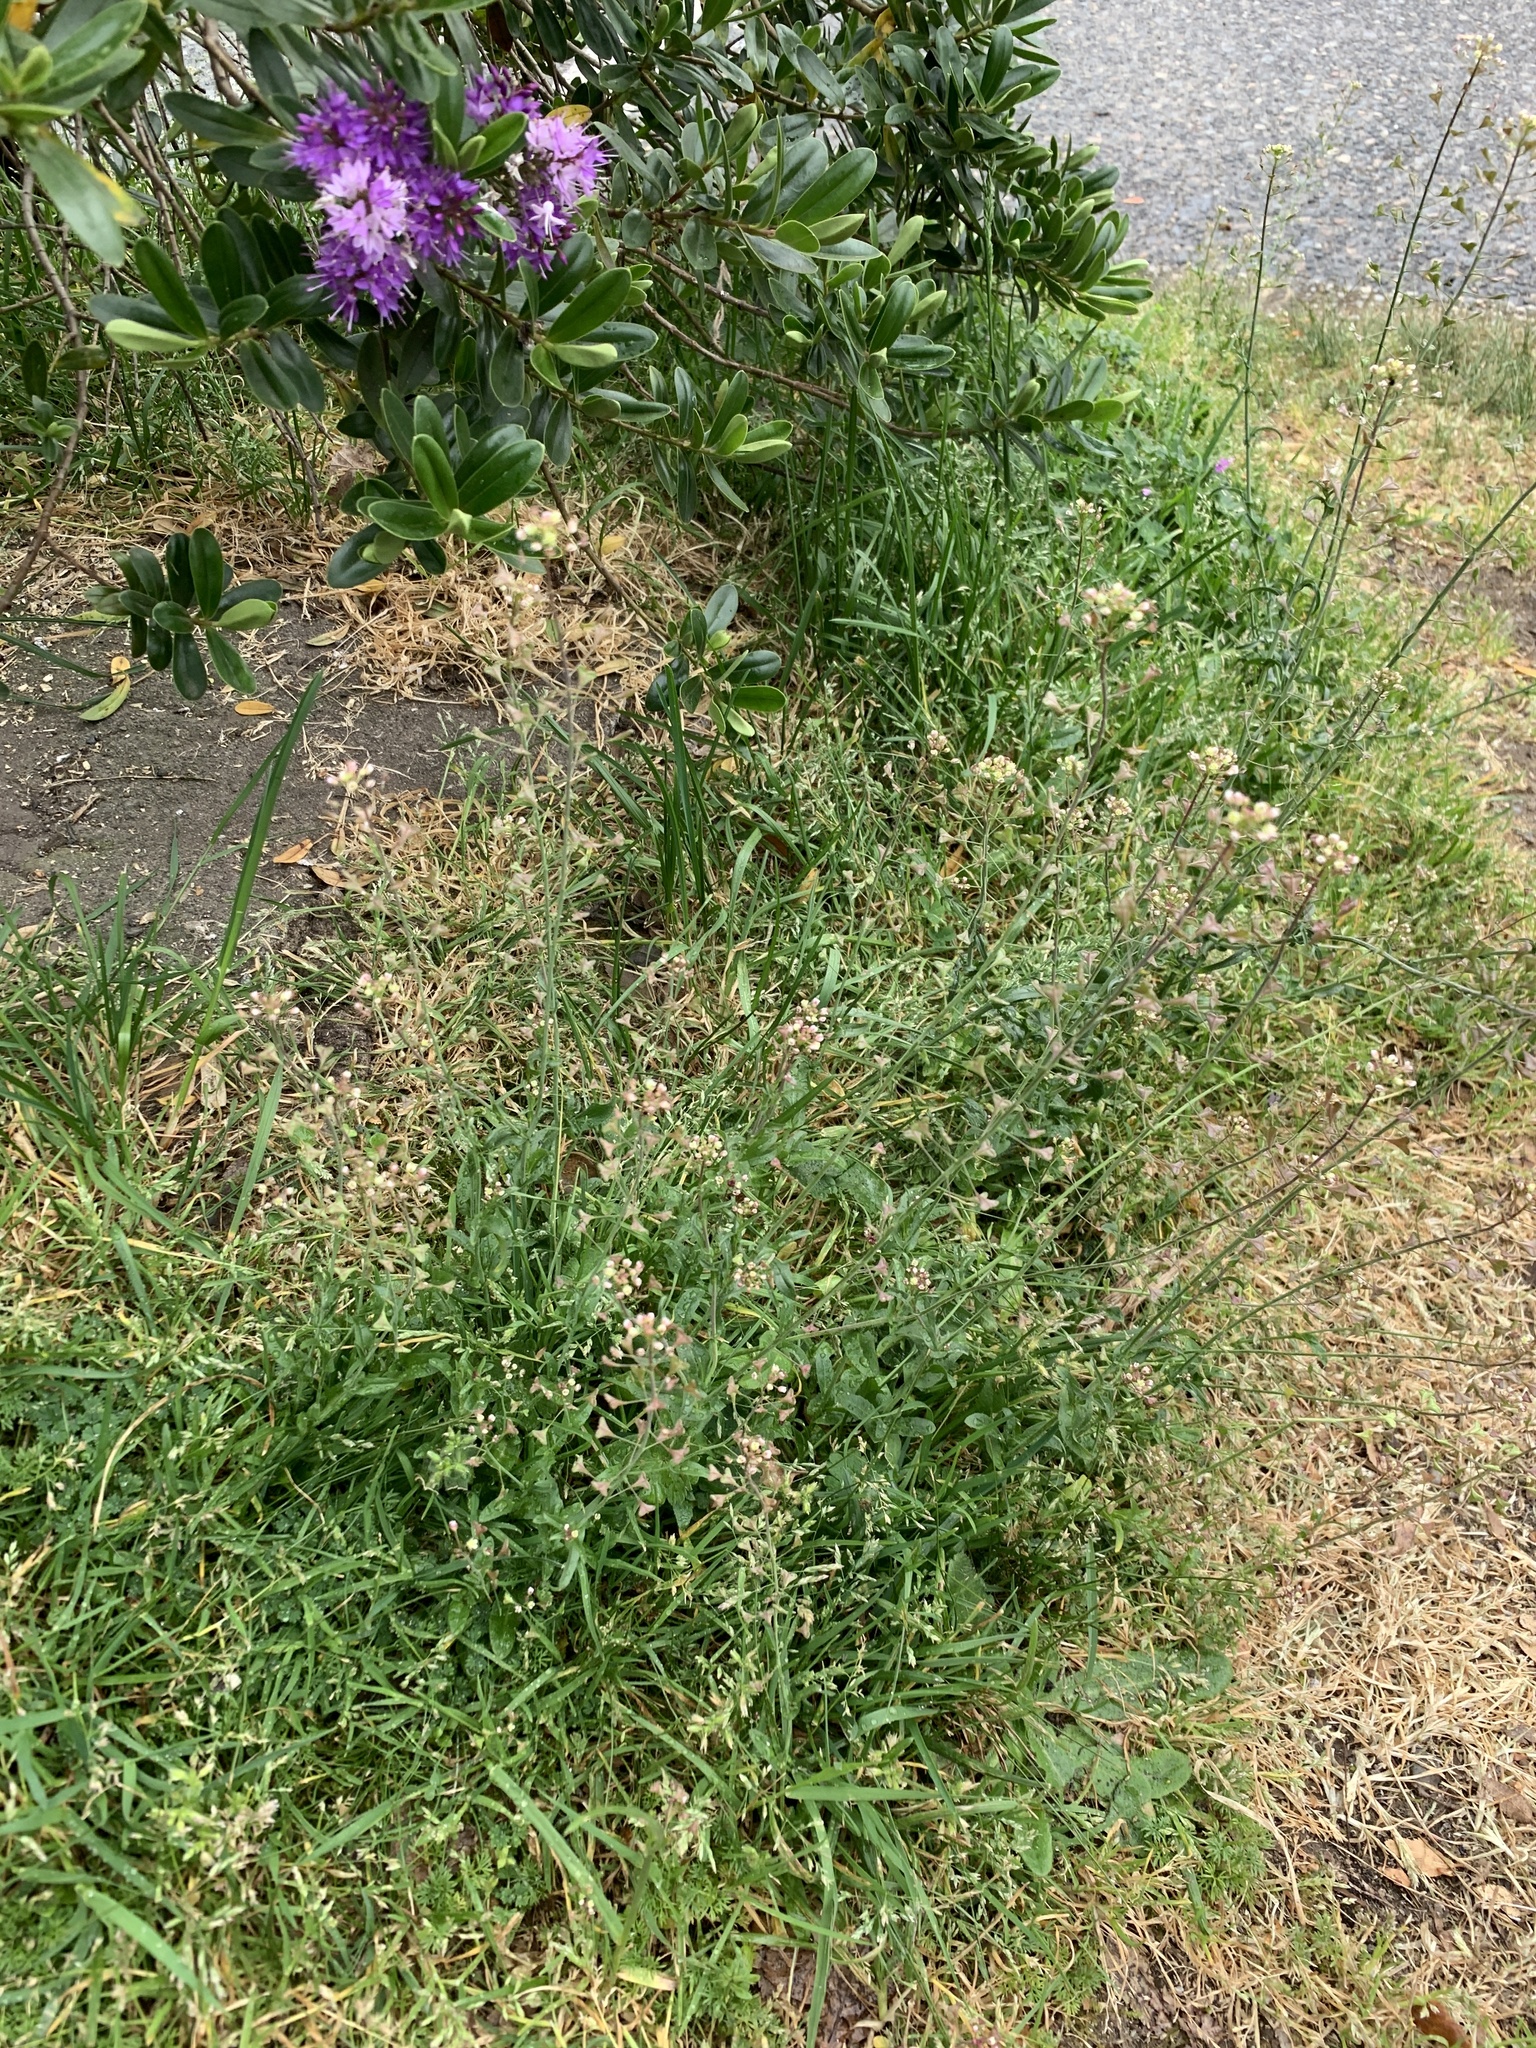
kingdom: Plantae
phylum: Tracheophyta
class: Magnoliopsida
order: Brassicales
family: Brassicaceae
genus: Capsella
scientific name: Capsella bursa-pastoris
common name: Shepherd's purse
